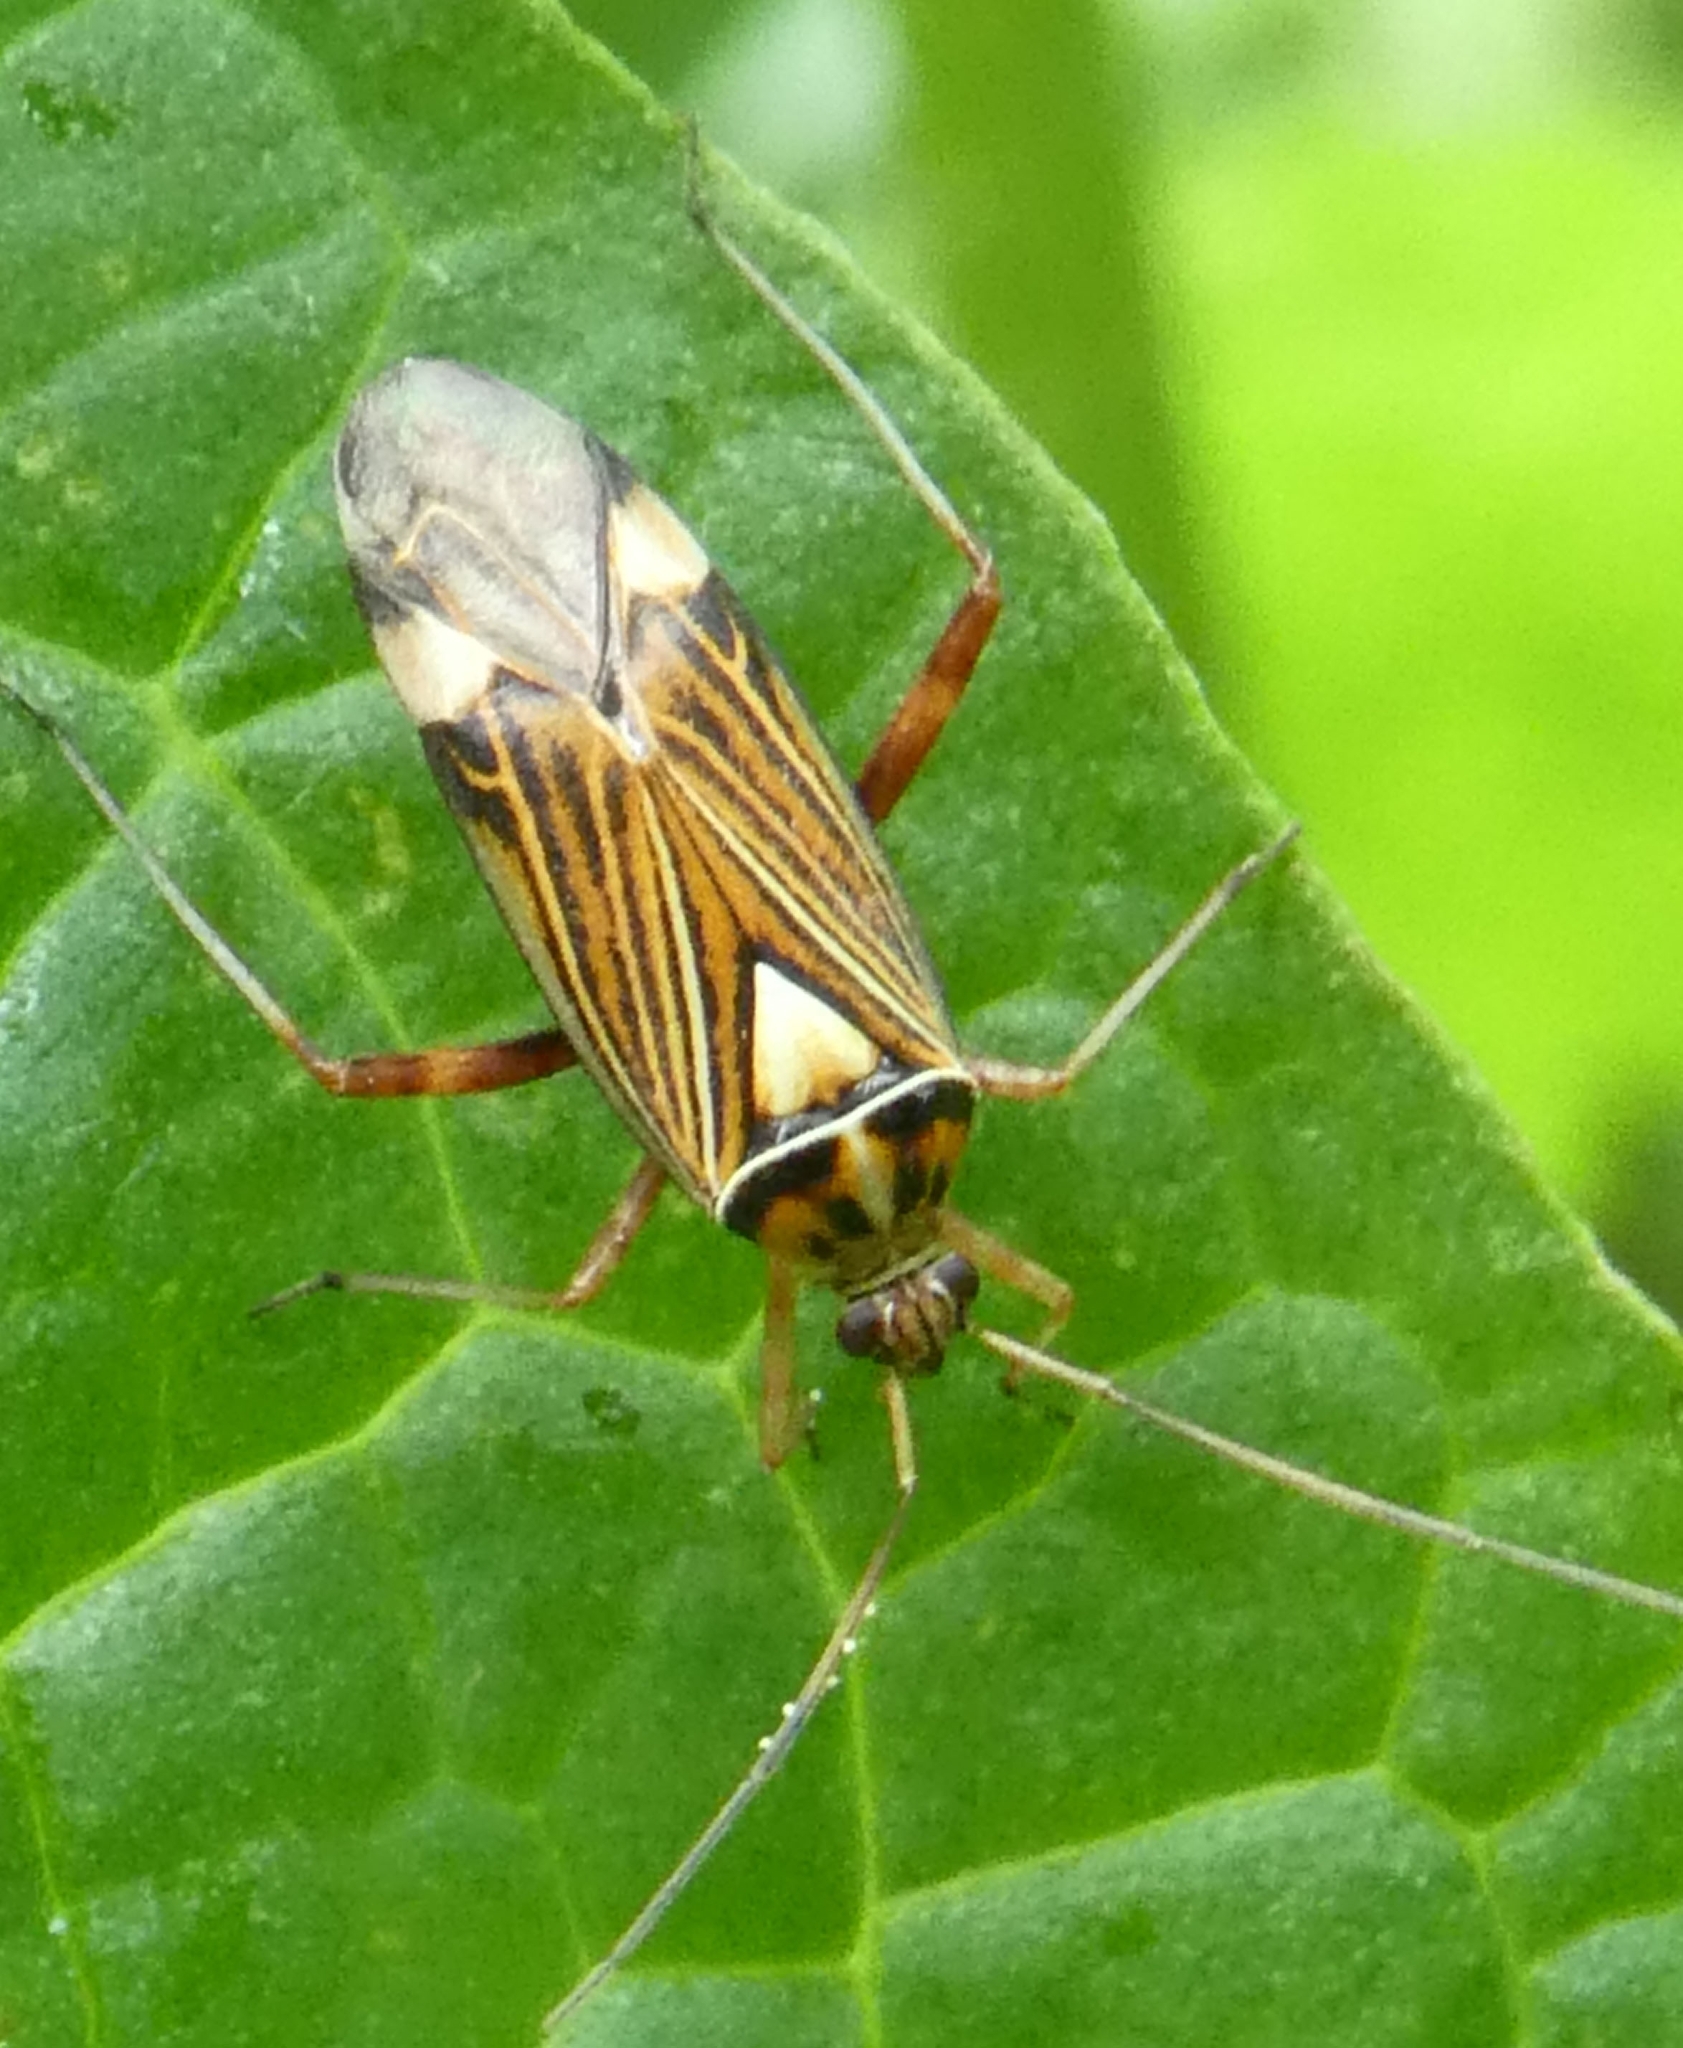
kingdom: Animalia
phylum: Arthropoda
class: Insecta
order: Hemiptera
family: Miridae
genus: Rhabdomiris
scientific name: Rhabdomiris striatellus
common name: Plant bug
